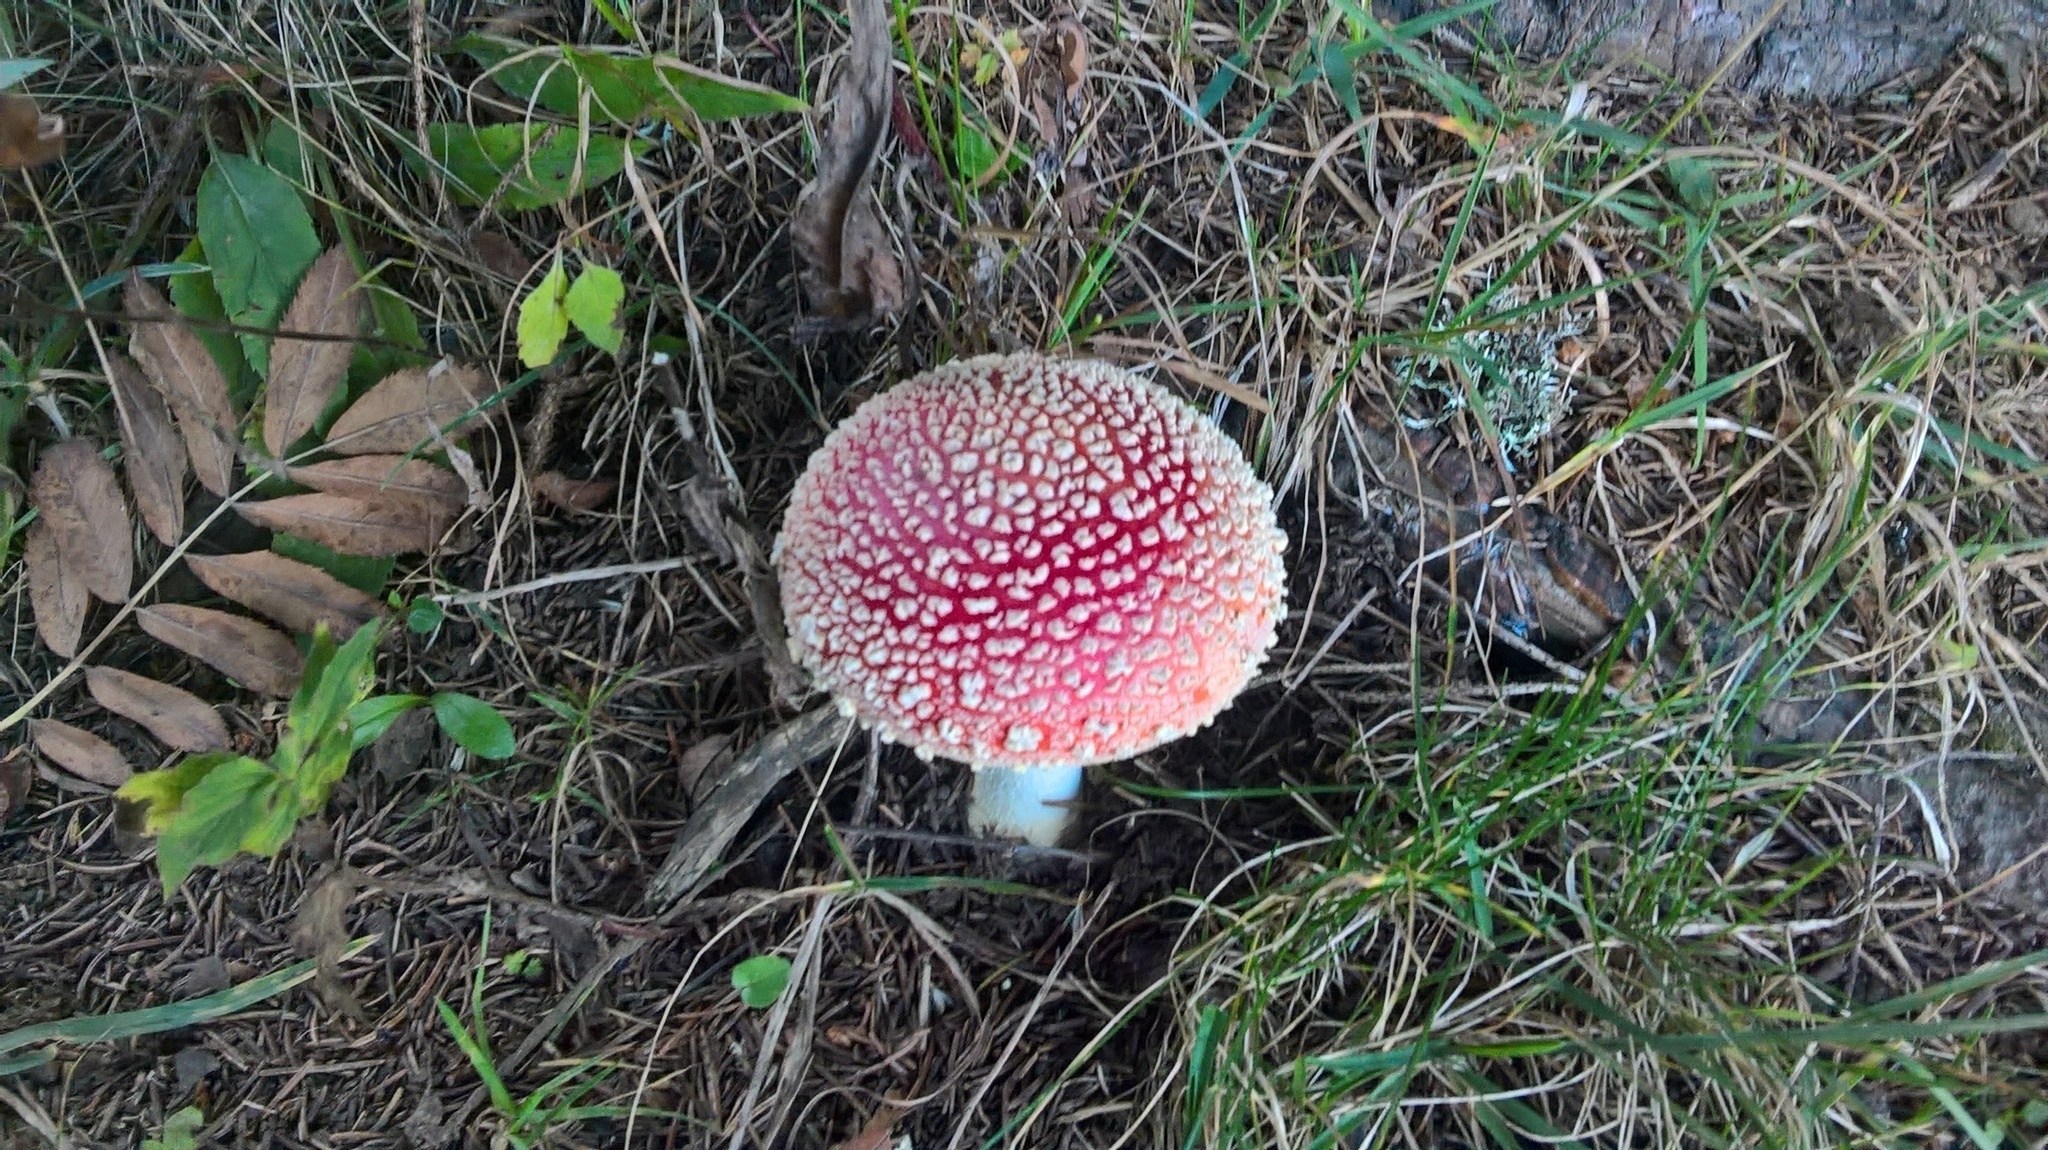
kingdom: Fungi
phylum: Basidiomycota
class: Agaricomycetes
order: Agaricales
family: Amanitaceae
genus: Amanita
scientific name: Amanita muscaria
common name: Fly agaric
